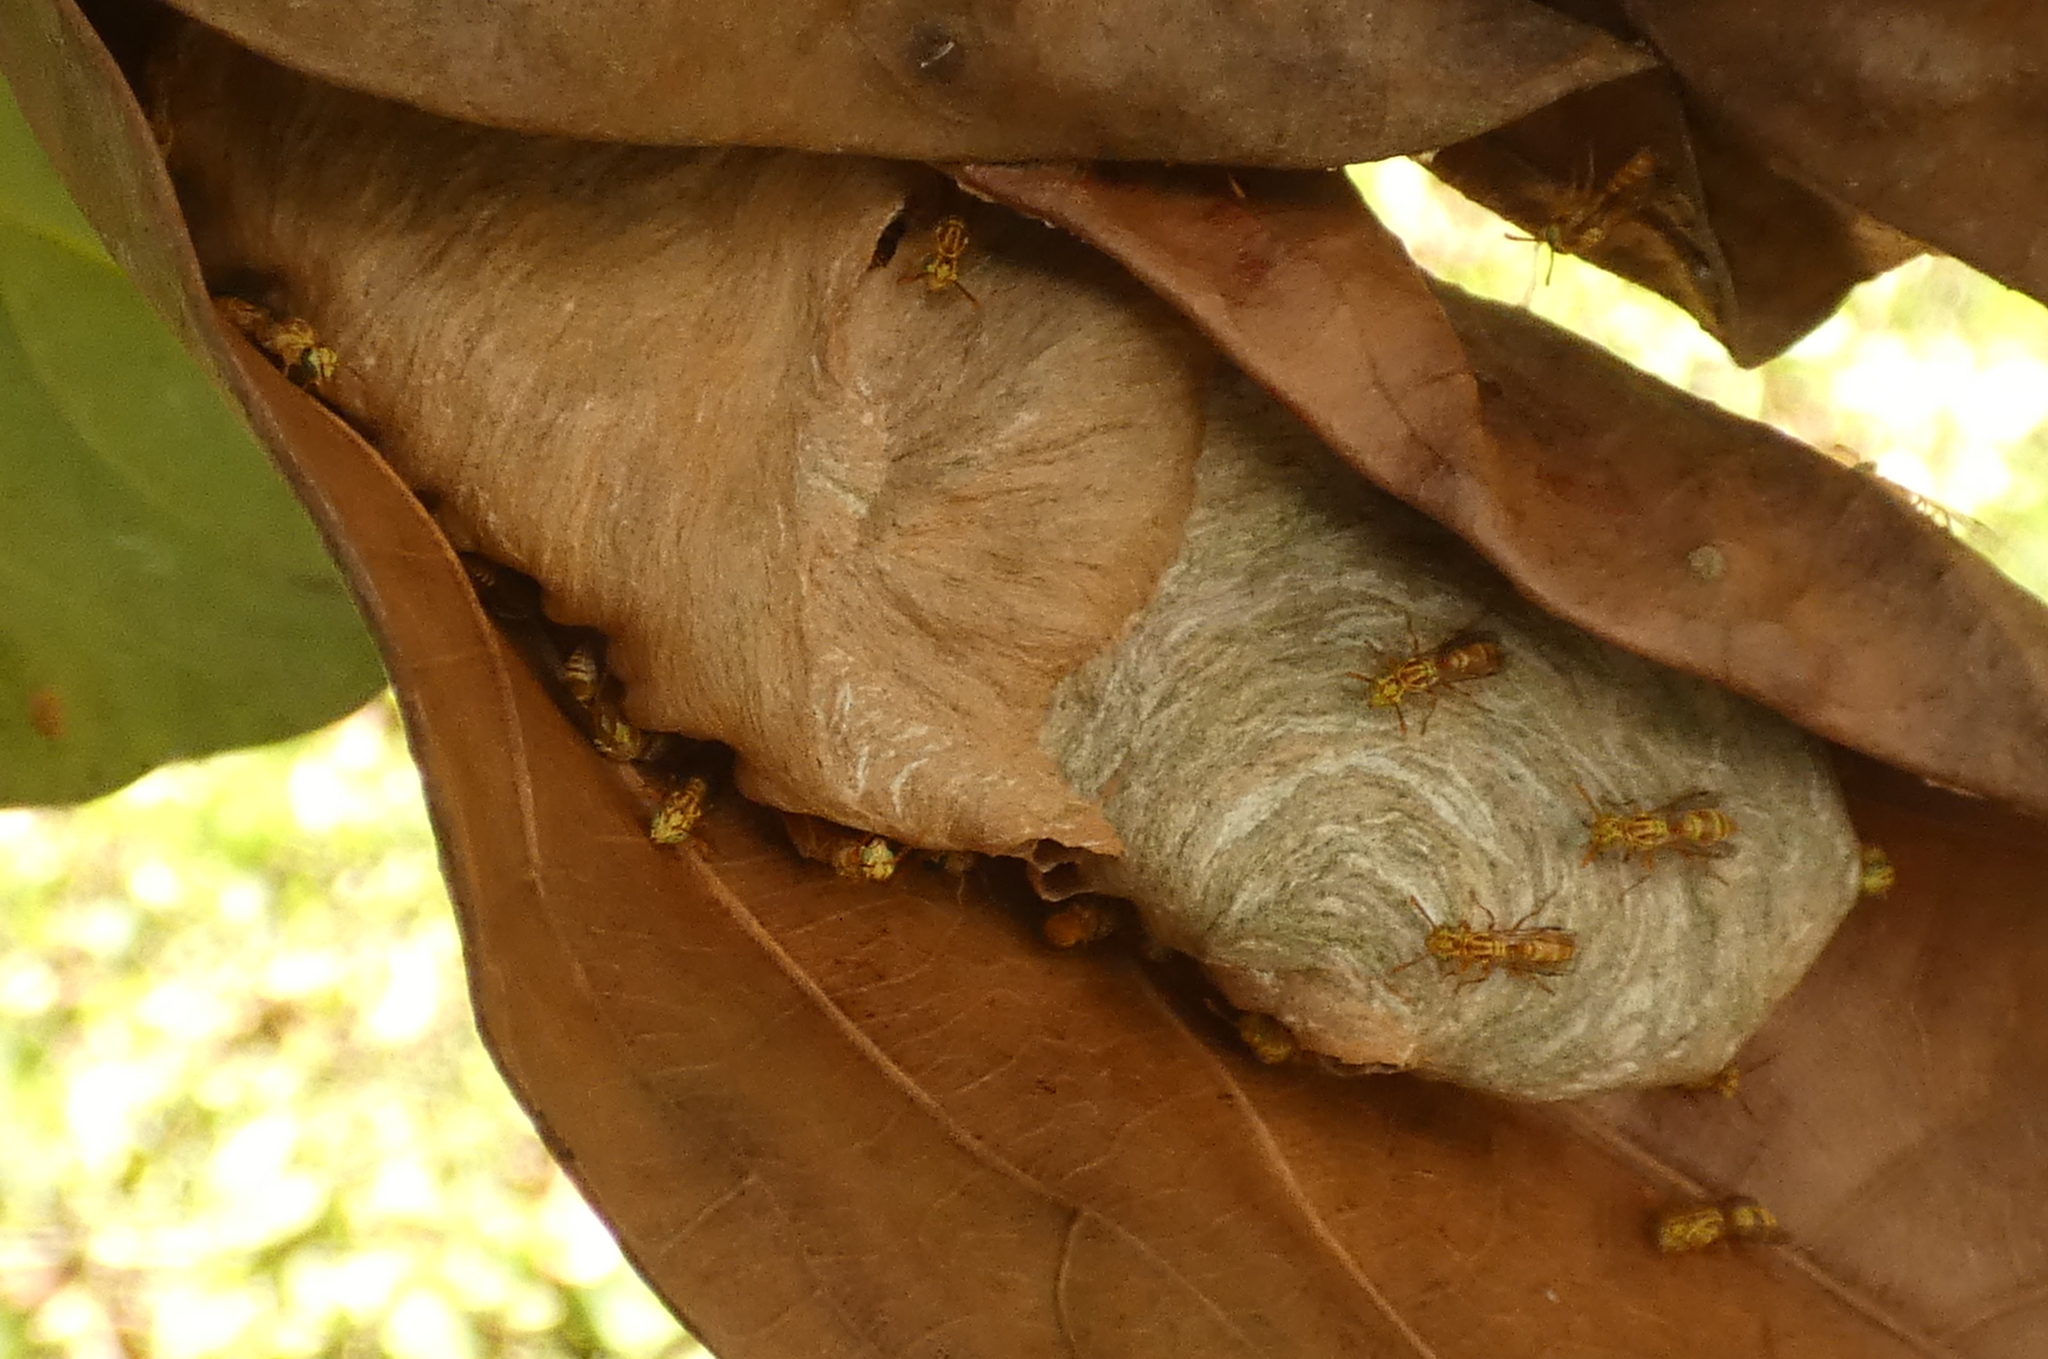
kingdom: Animalia
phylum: Arthropoda
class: Insecta
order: Hymenoptera
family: Vespidae
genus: Protopolybia
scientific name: Protopolybia potiguara
